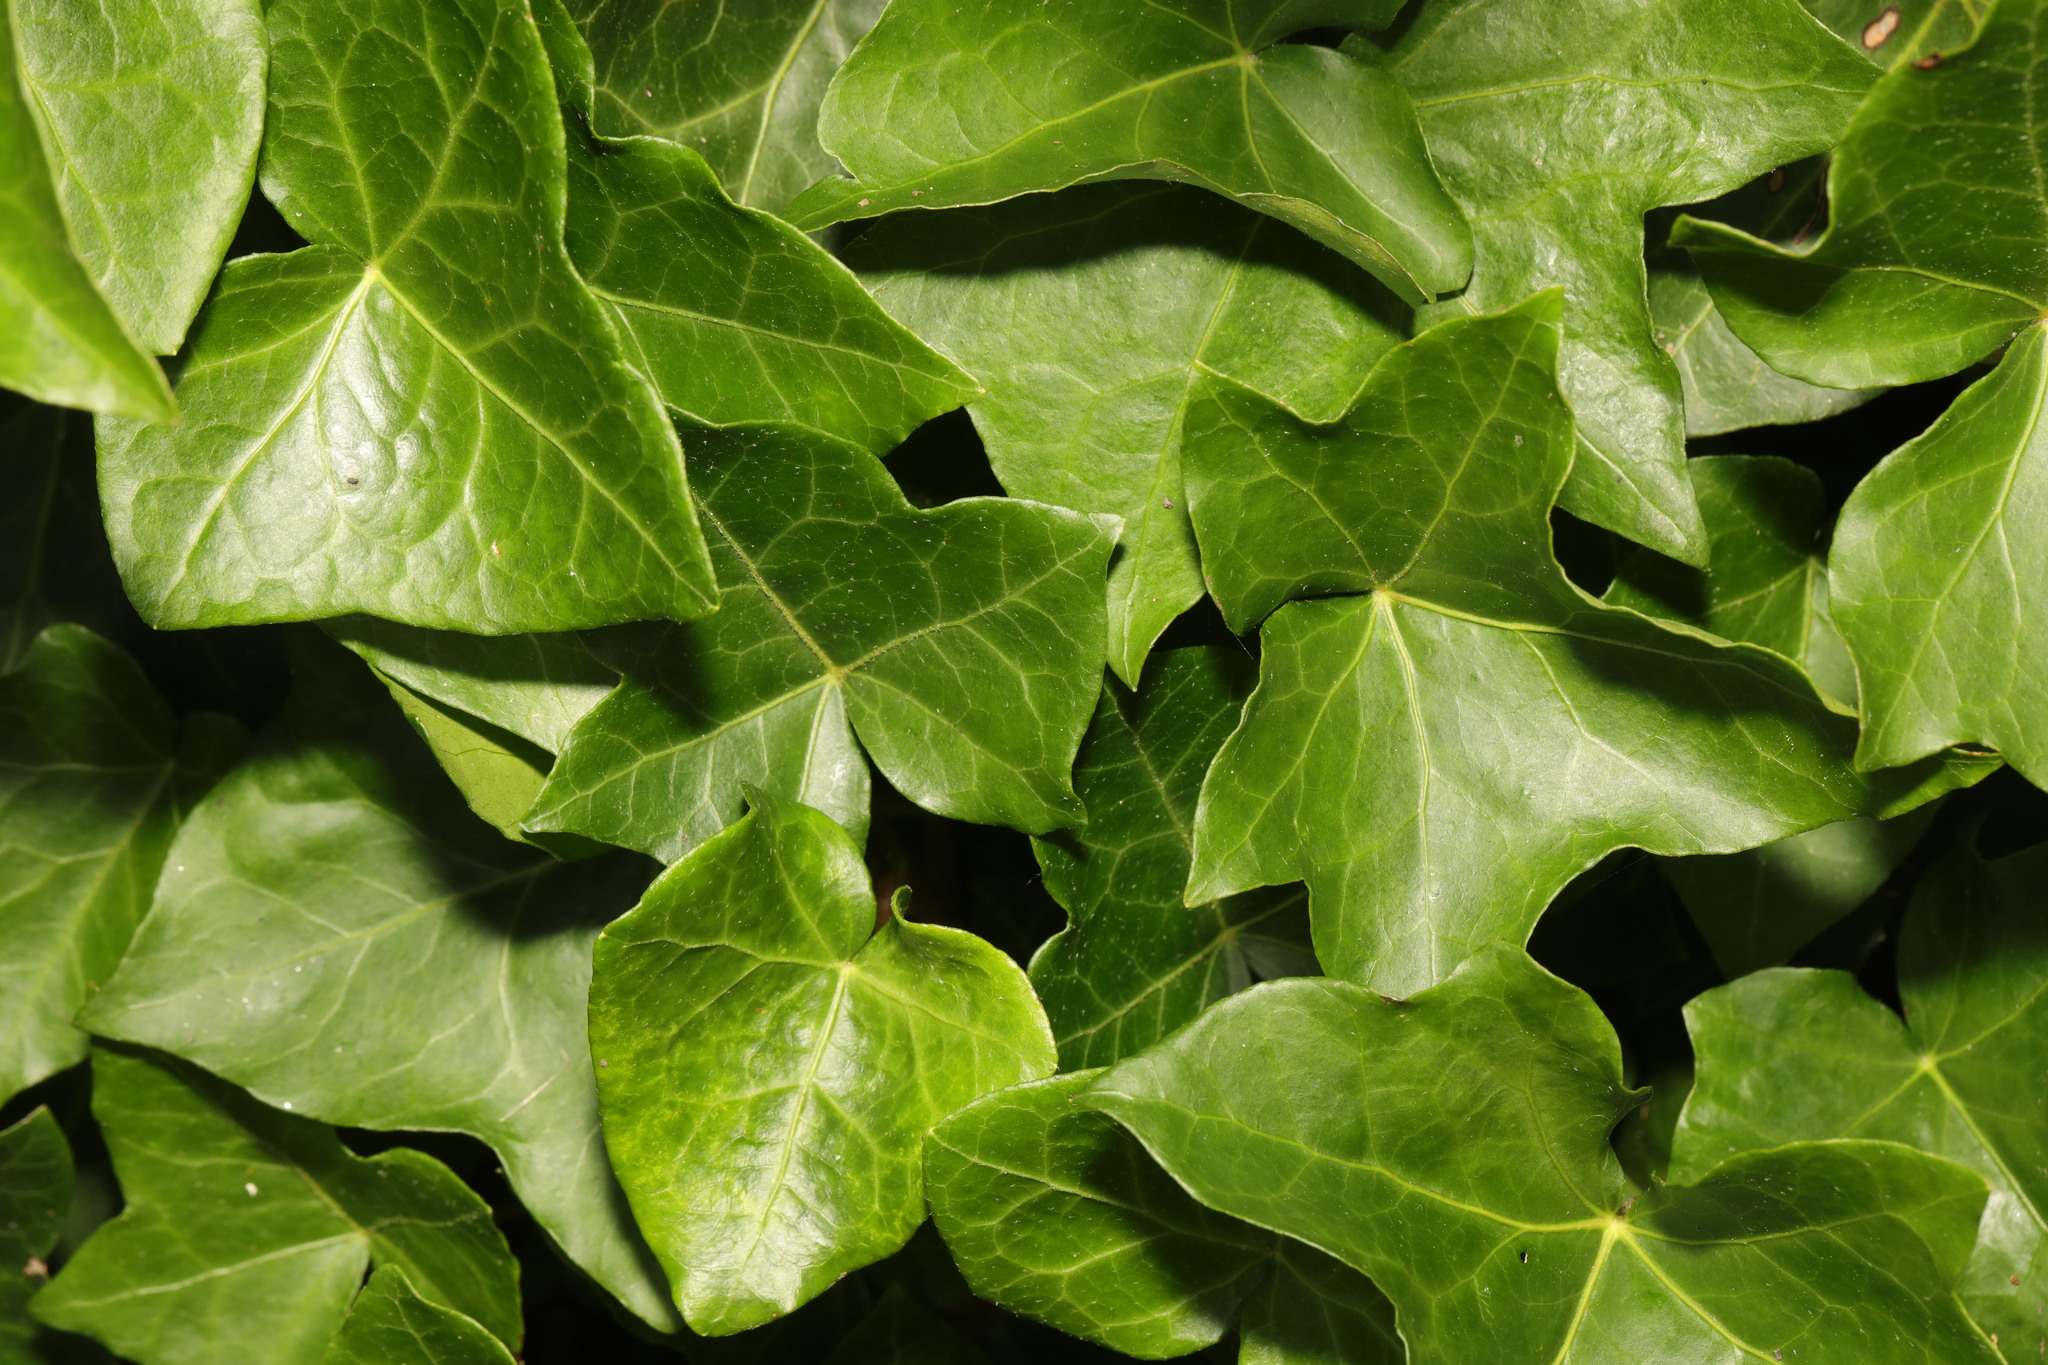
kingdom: Plantae
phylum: Tracheophyta
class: Magnoliopsida
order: Apiales
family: Araliaceae
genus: Hedera
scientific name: Hedera helix
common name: Ivy
